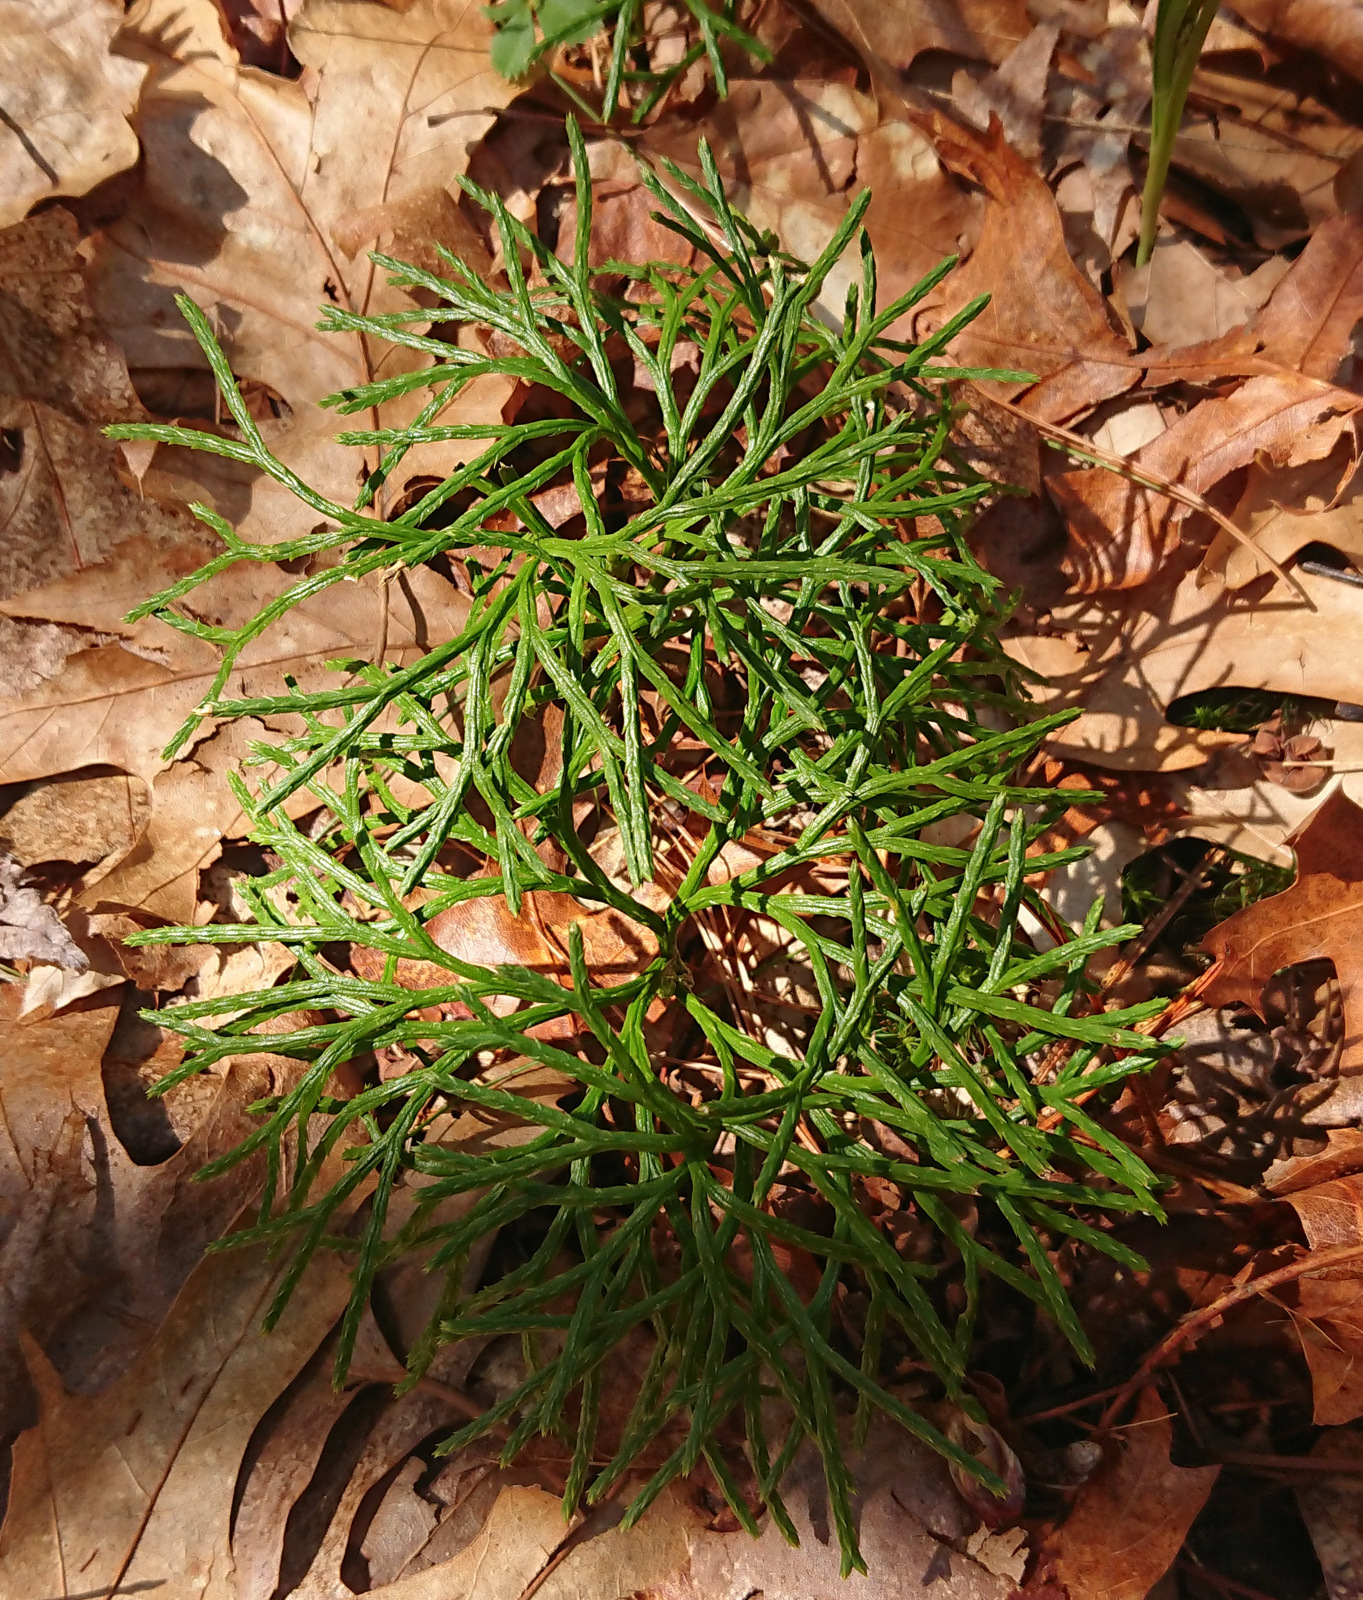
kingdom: Plantae
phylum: Tracheophyta
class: Lycopodiopsida
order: Lycopodiales
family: Lycopodiaceae
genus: Diphasiastrum
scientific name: Diphasiastrum digitatum
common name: Southern running-pine
